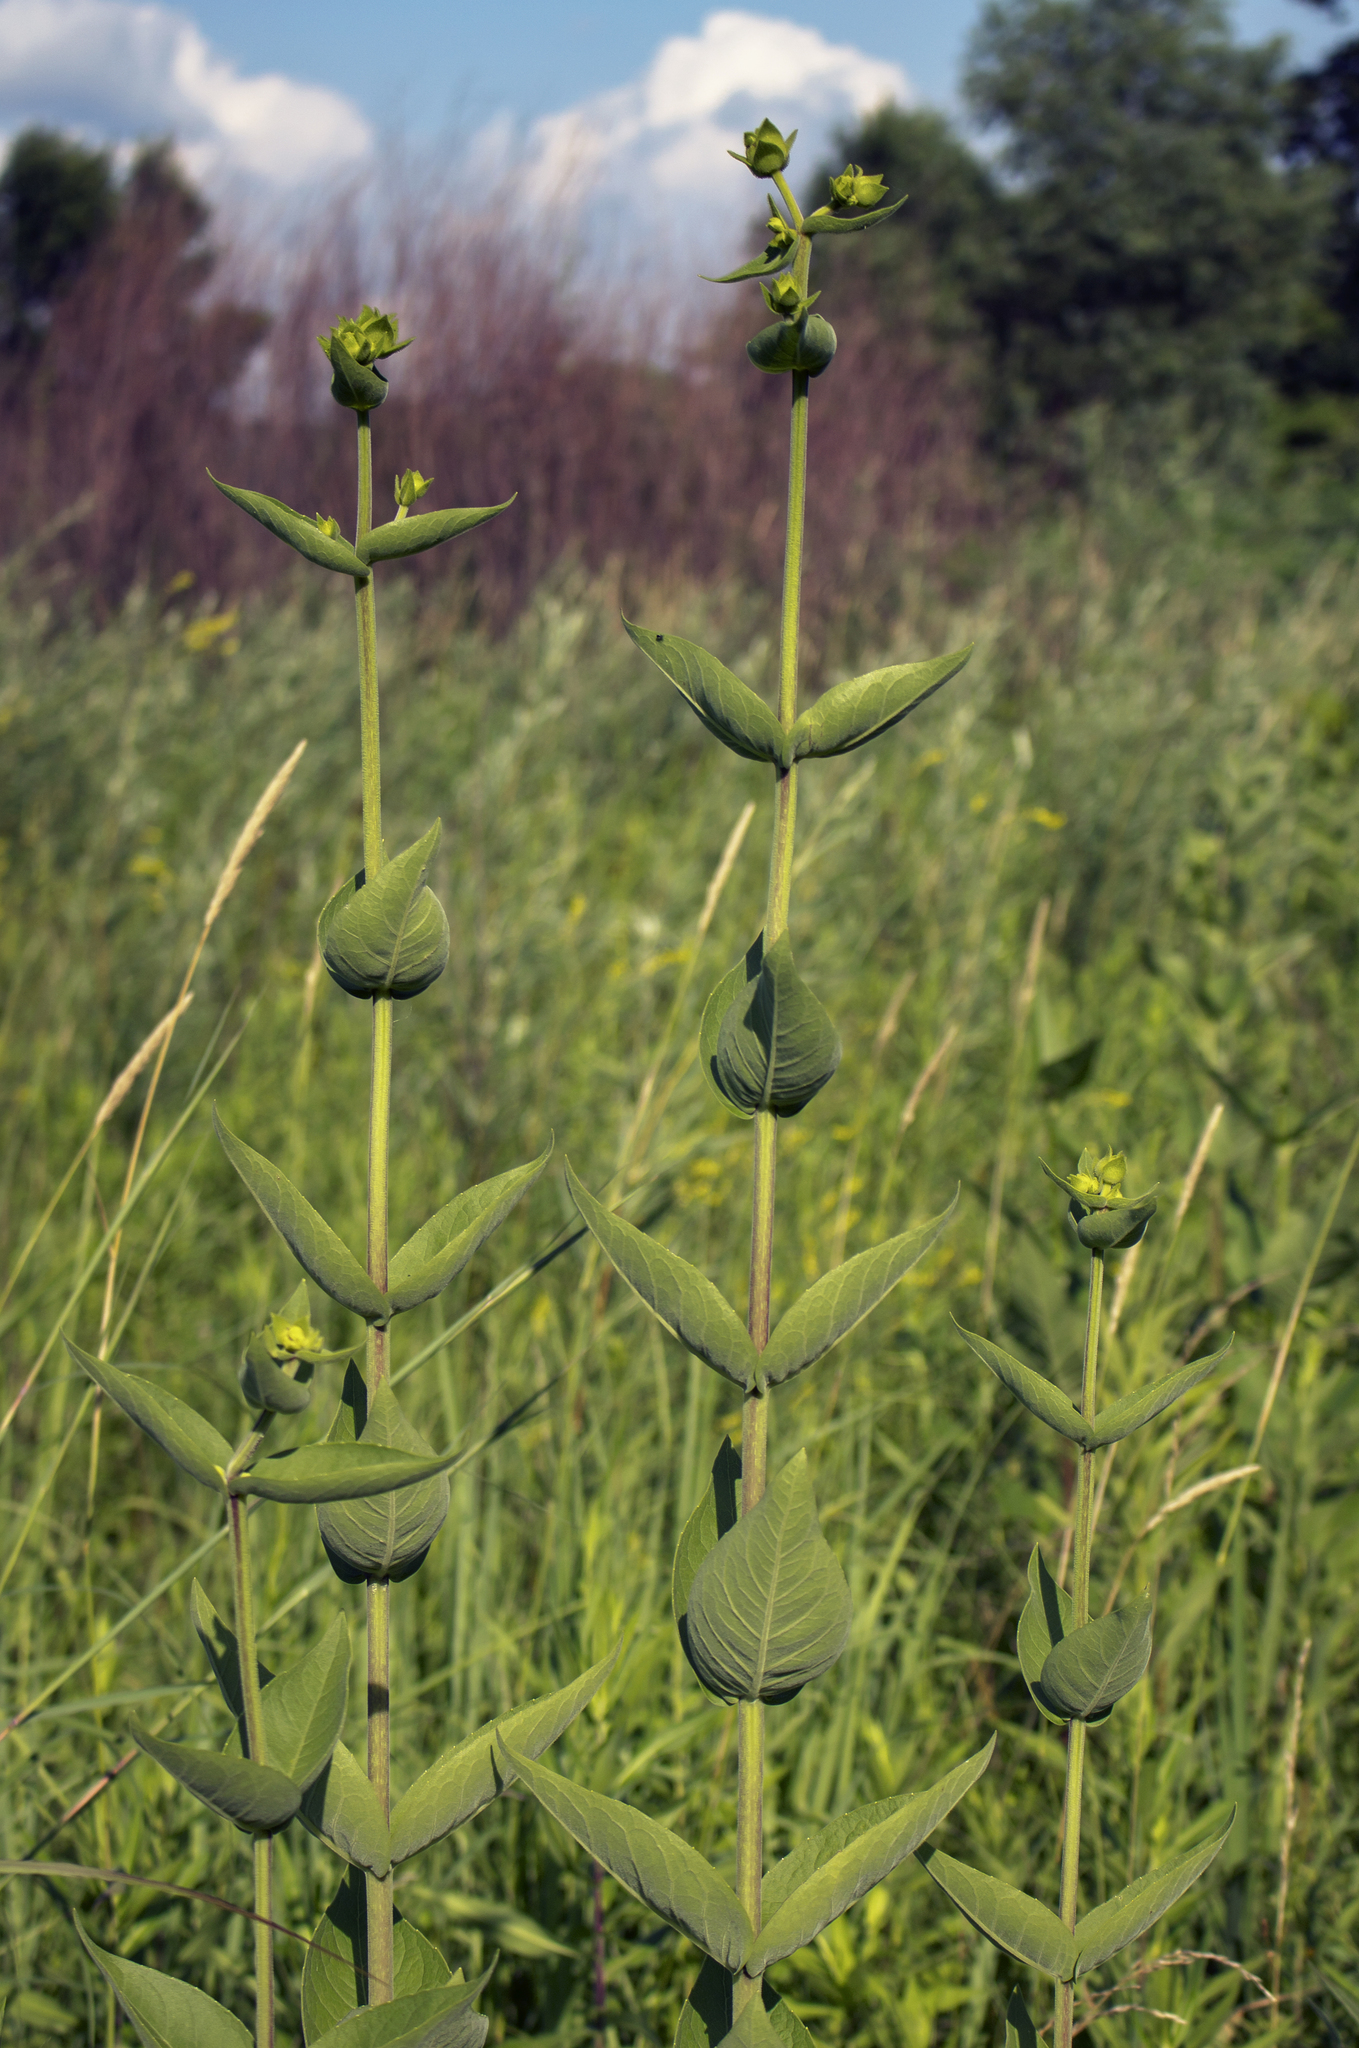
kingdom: Plantae
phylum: Tracheophyta
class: Magnoliopsida
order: Asterales
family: Asteraceae
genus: Silphium
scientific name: Silphium integrifolium
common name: Whole-leaf rosinweed
